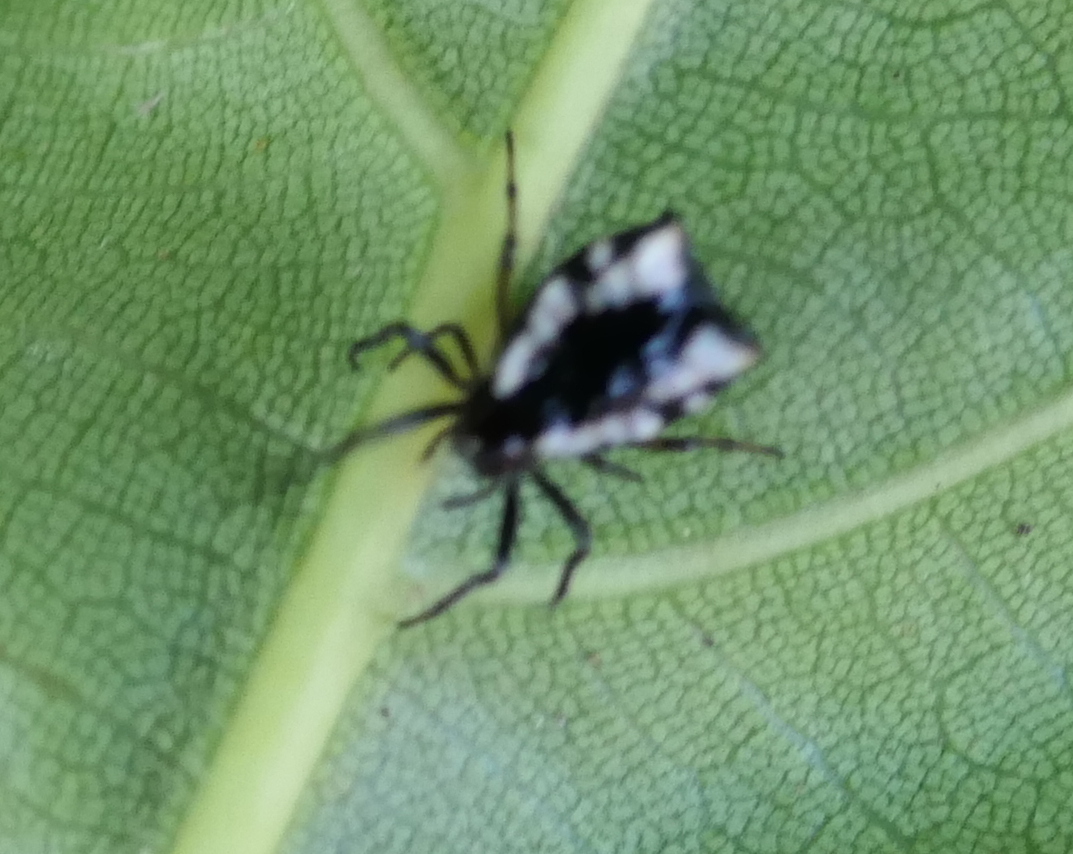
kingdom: Animalia
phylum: Arthropoda
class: Arachnida
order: Araneae
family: Araneidae
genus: Micrathena
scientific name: Micrathena patruelis
